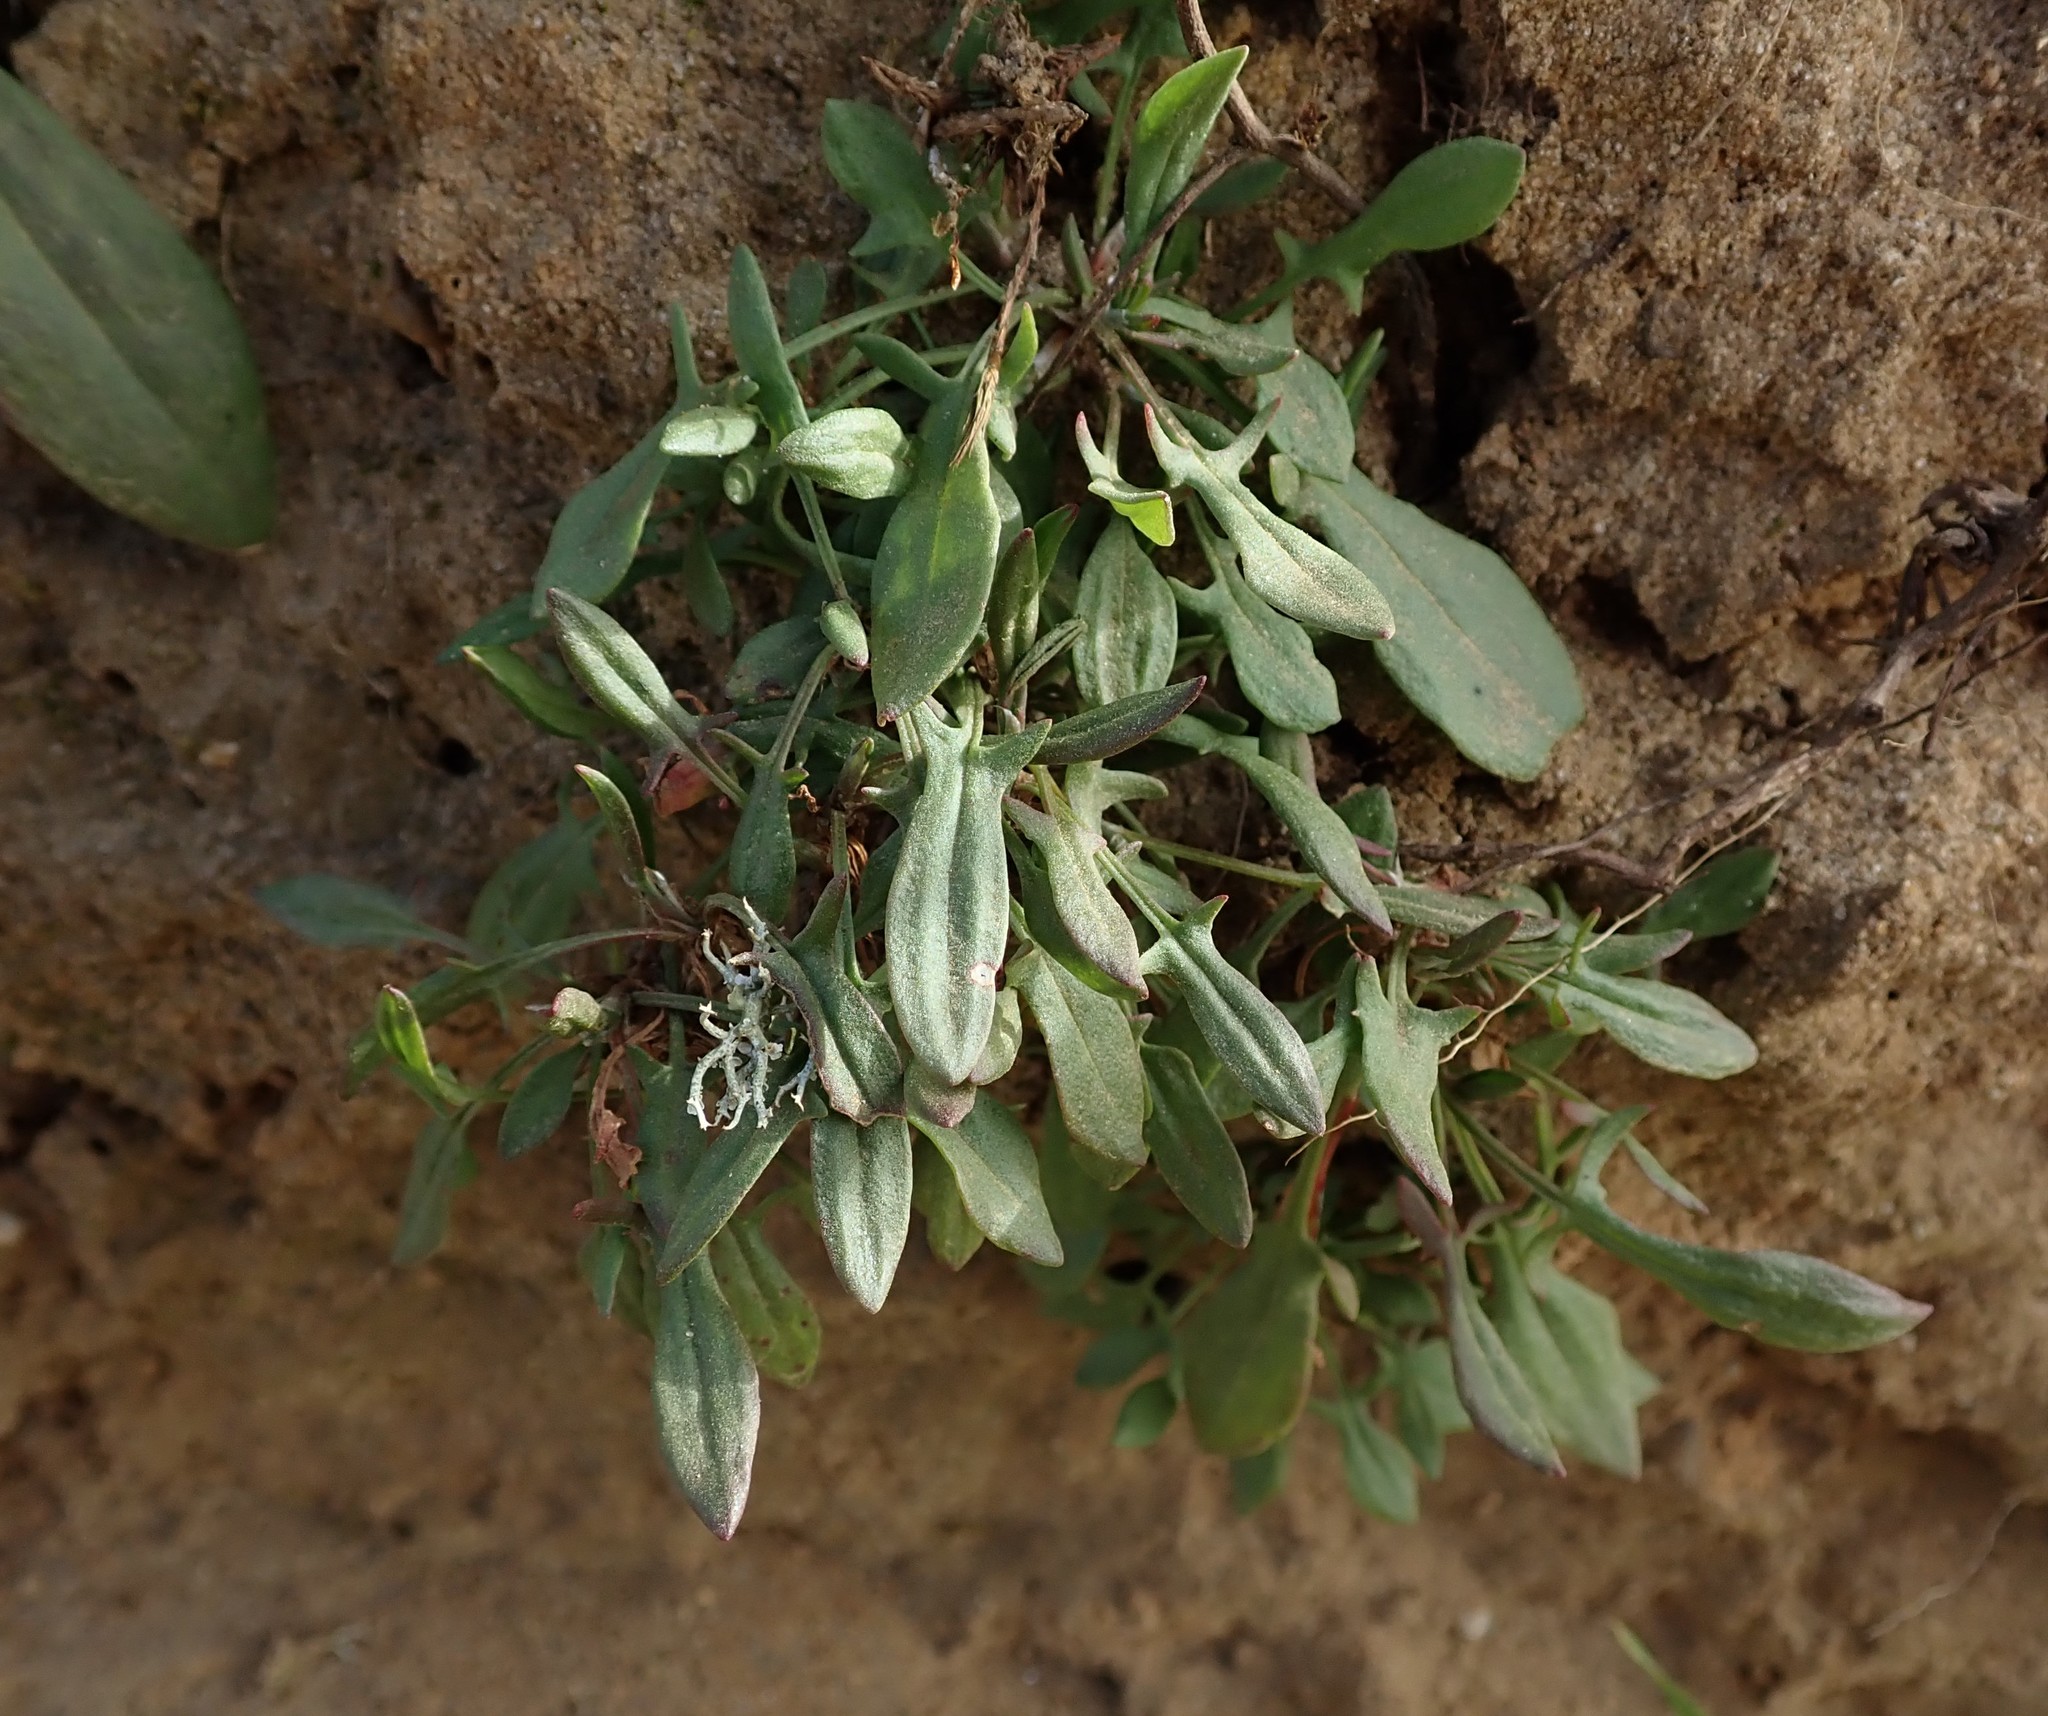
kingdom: Plantae
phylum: Tracheophyta
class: Magnoliopsida
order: Caryophyllales
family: Polygonaceae
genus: Rumex
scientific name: Rumex acetosella
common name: Common sheep sorrel
